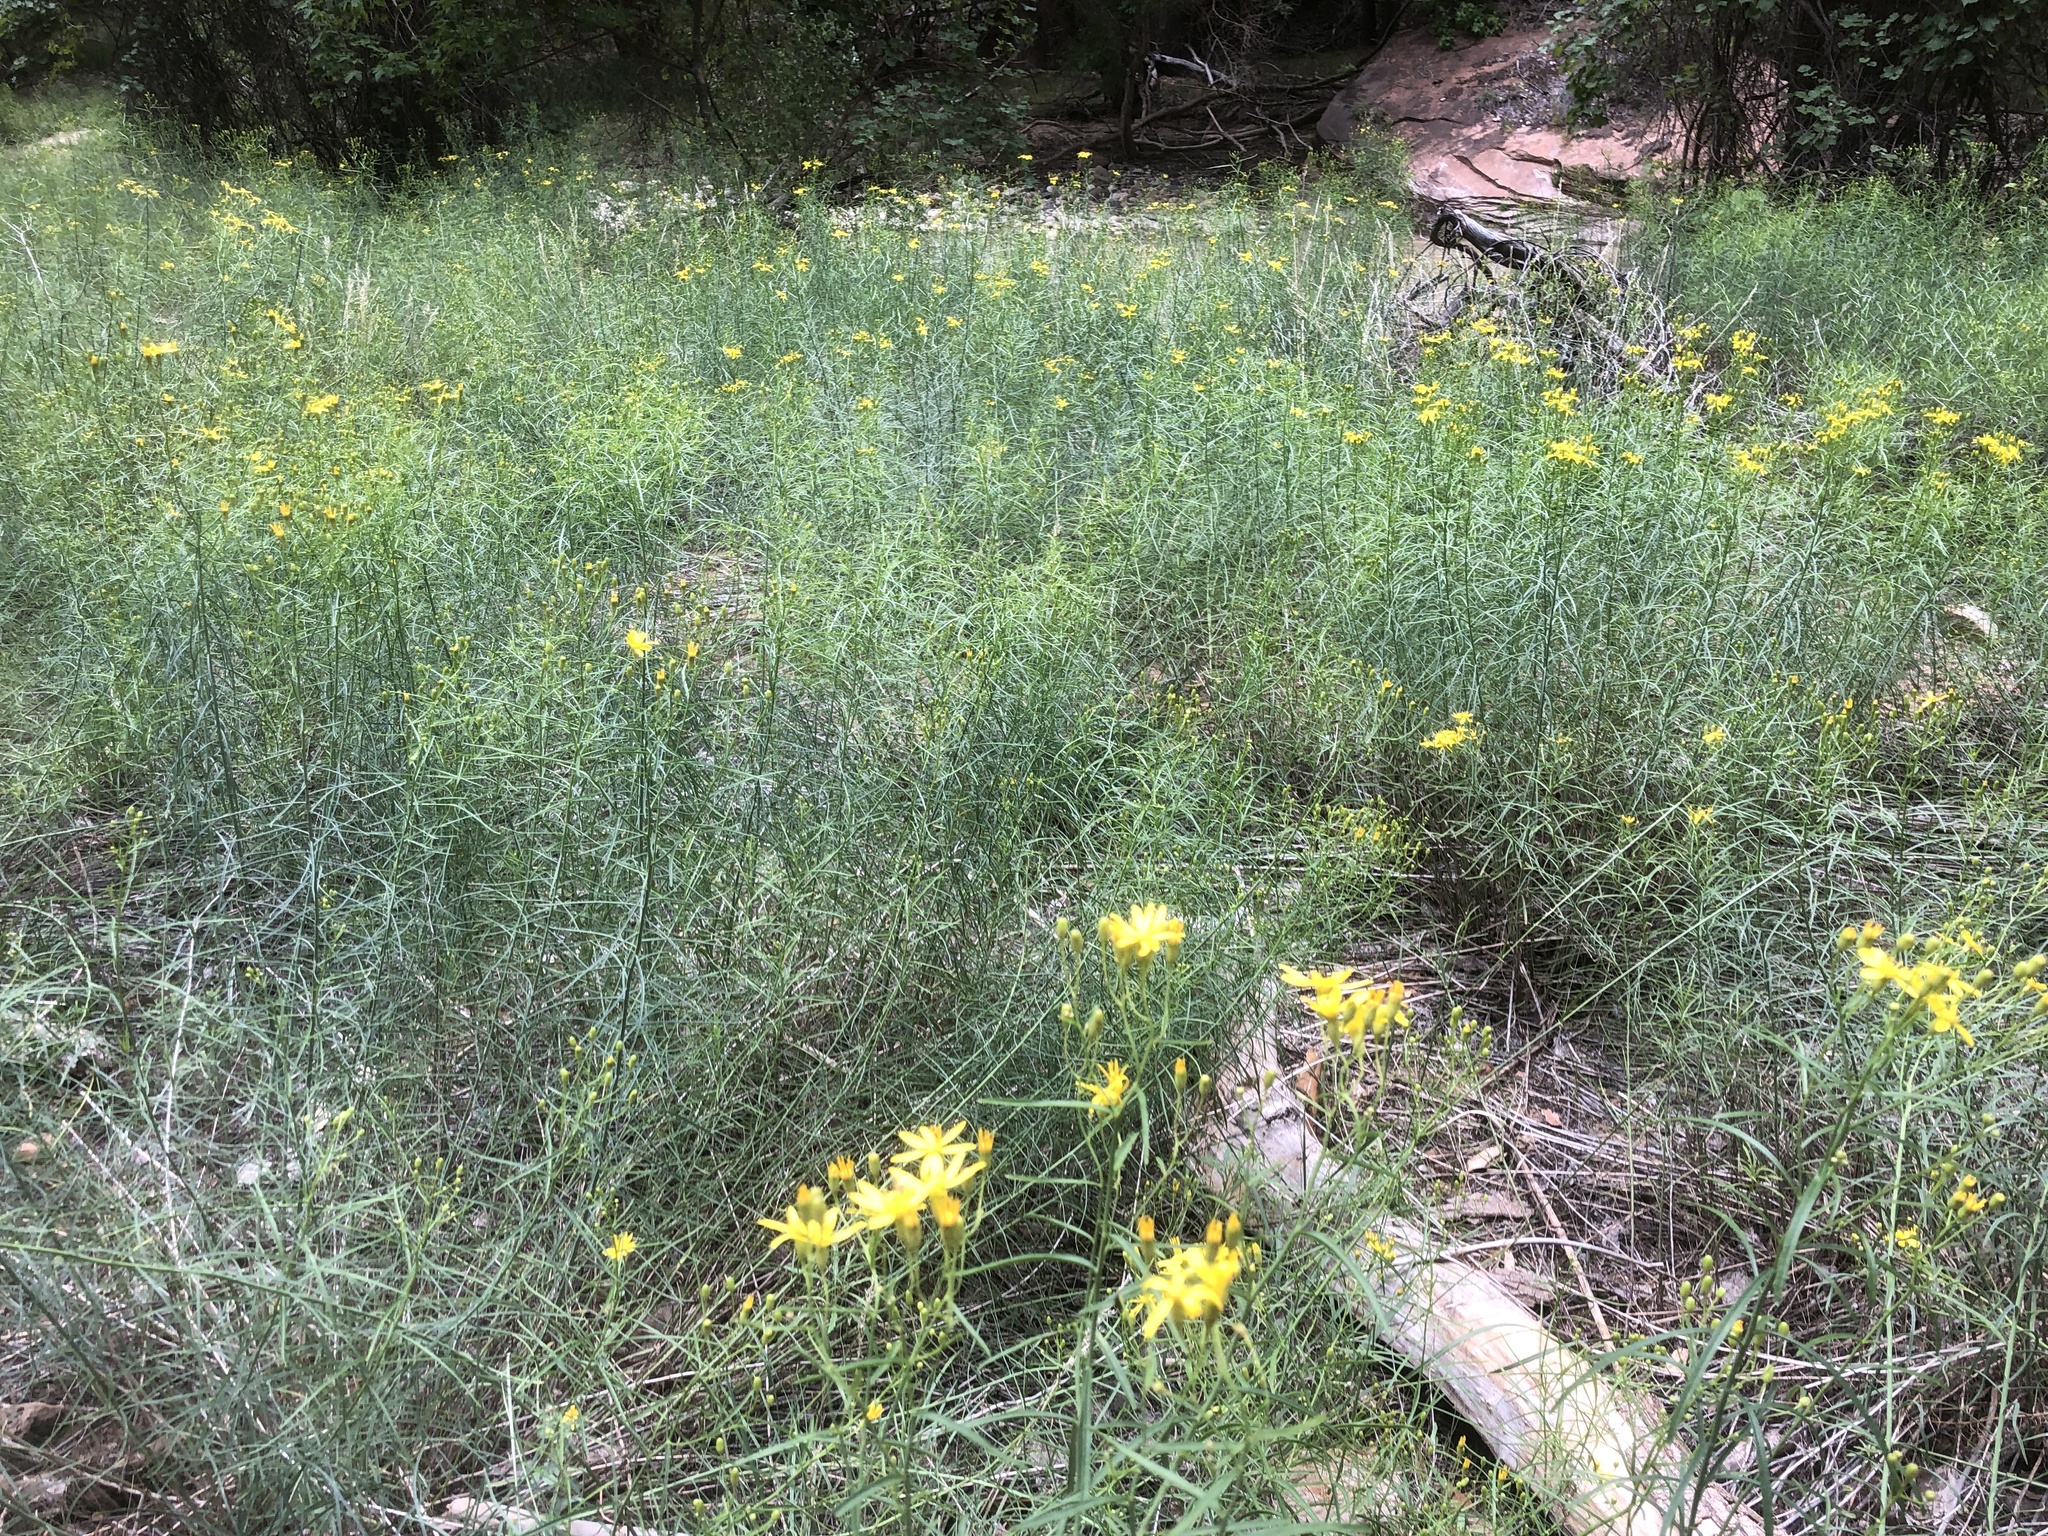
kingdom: Plantae
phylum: Tracheophyta
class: Magnoliopsida
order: Asterales
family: Asteraceae
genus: Senecio
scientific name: Senecio spartioides
